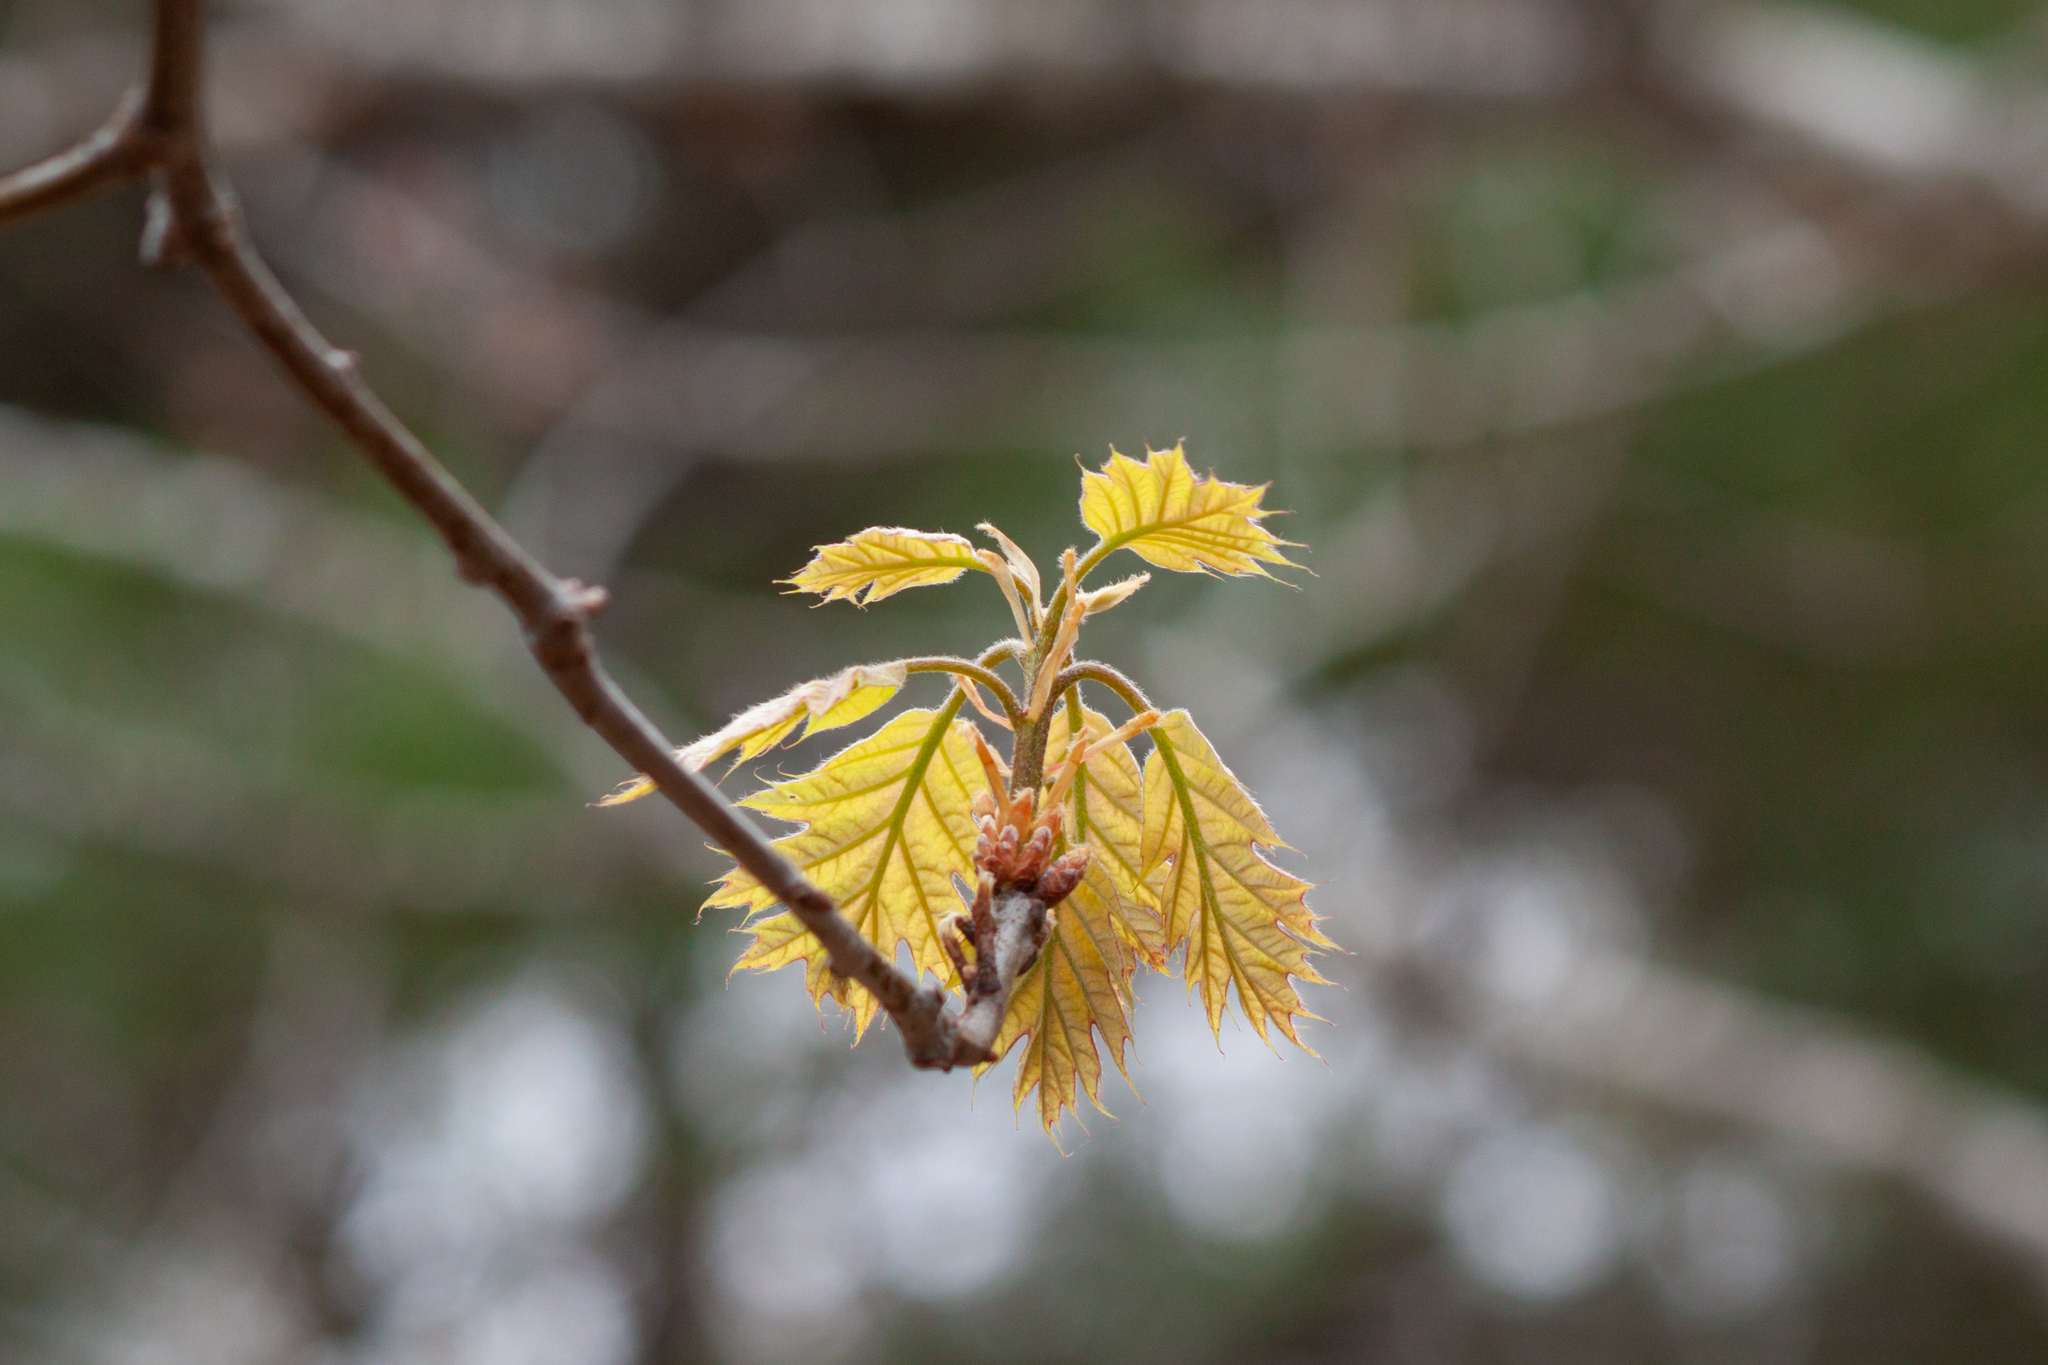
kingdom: Plantae
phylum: Tracheophyta
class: Magnoliopsida
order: Fagales
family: Fagaceae
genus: Quercus
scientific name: Quercus rubra
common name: Red oak
